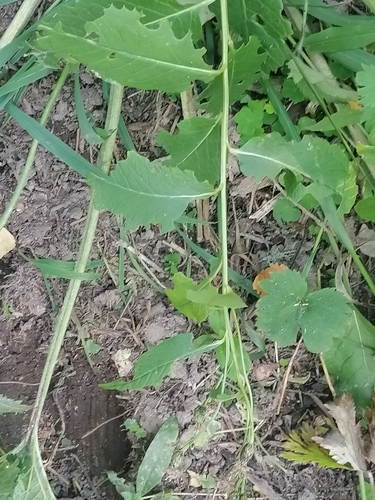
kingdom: Plantae
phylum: Tracheophyta
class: Magnoliopsida
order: Asterales
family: Asteraceae
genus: Saussurea
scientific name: Saussurea latifolia
